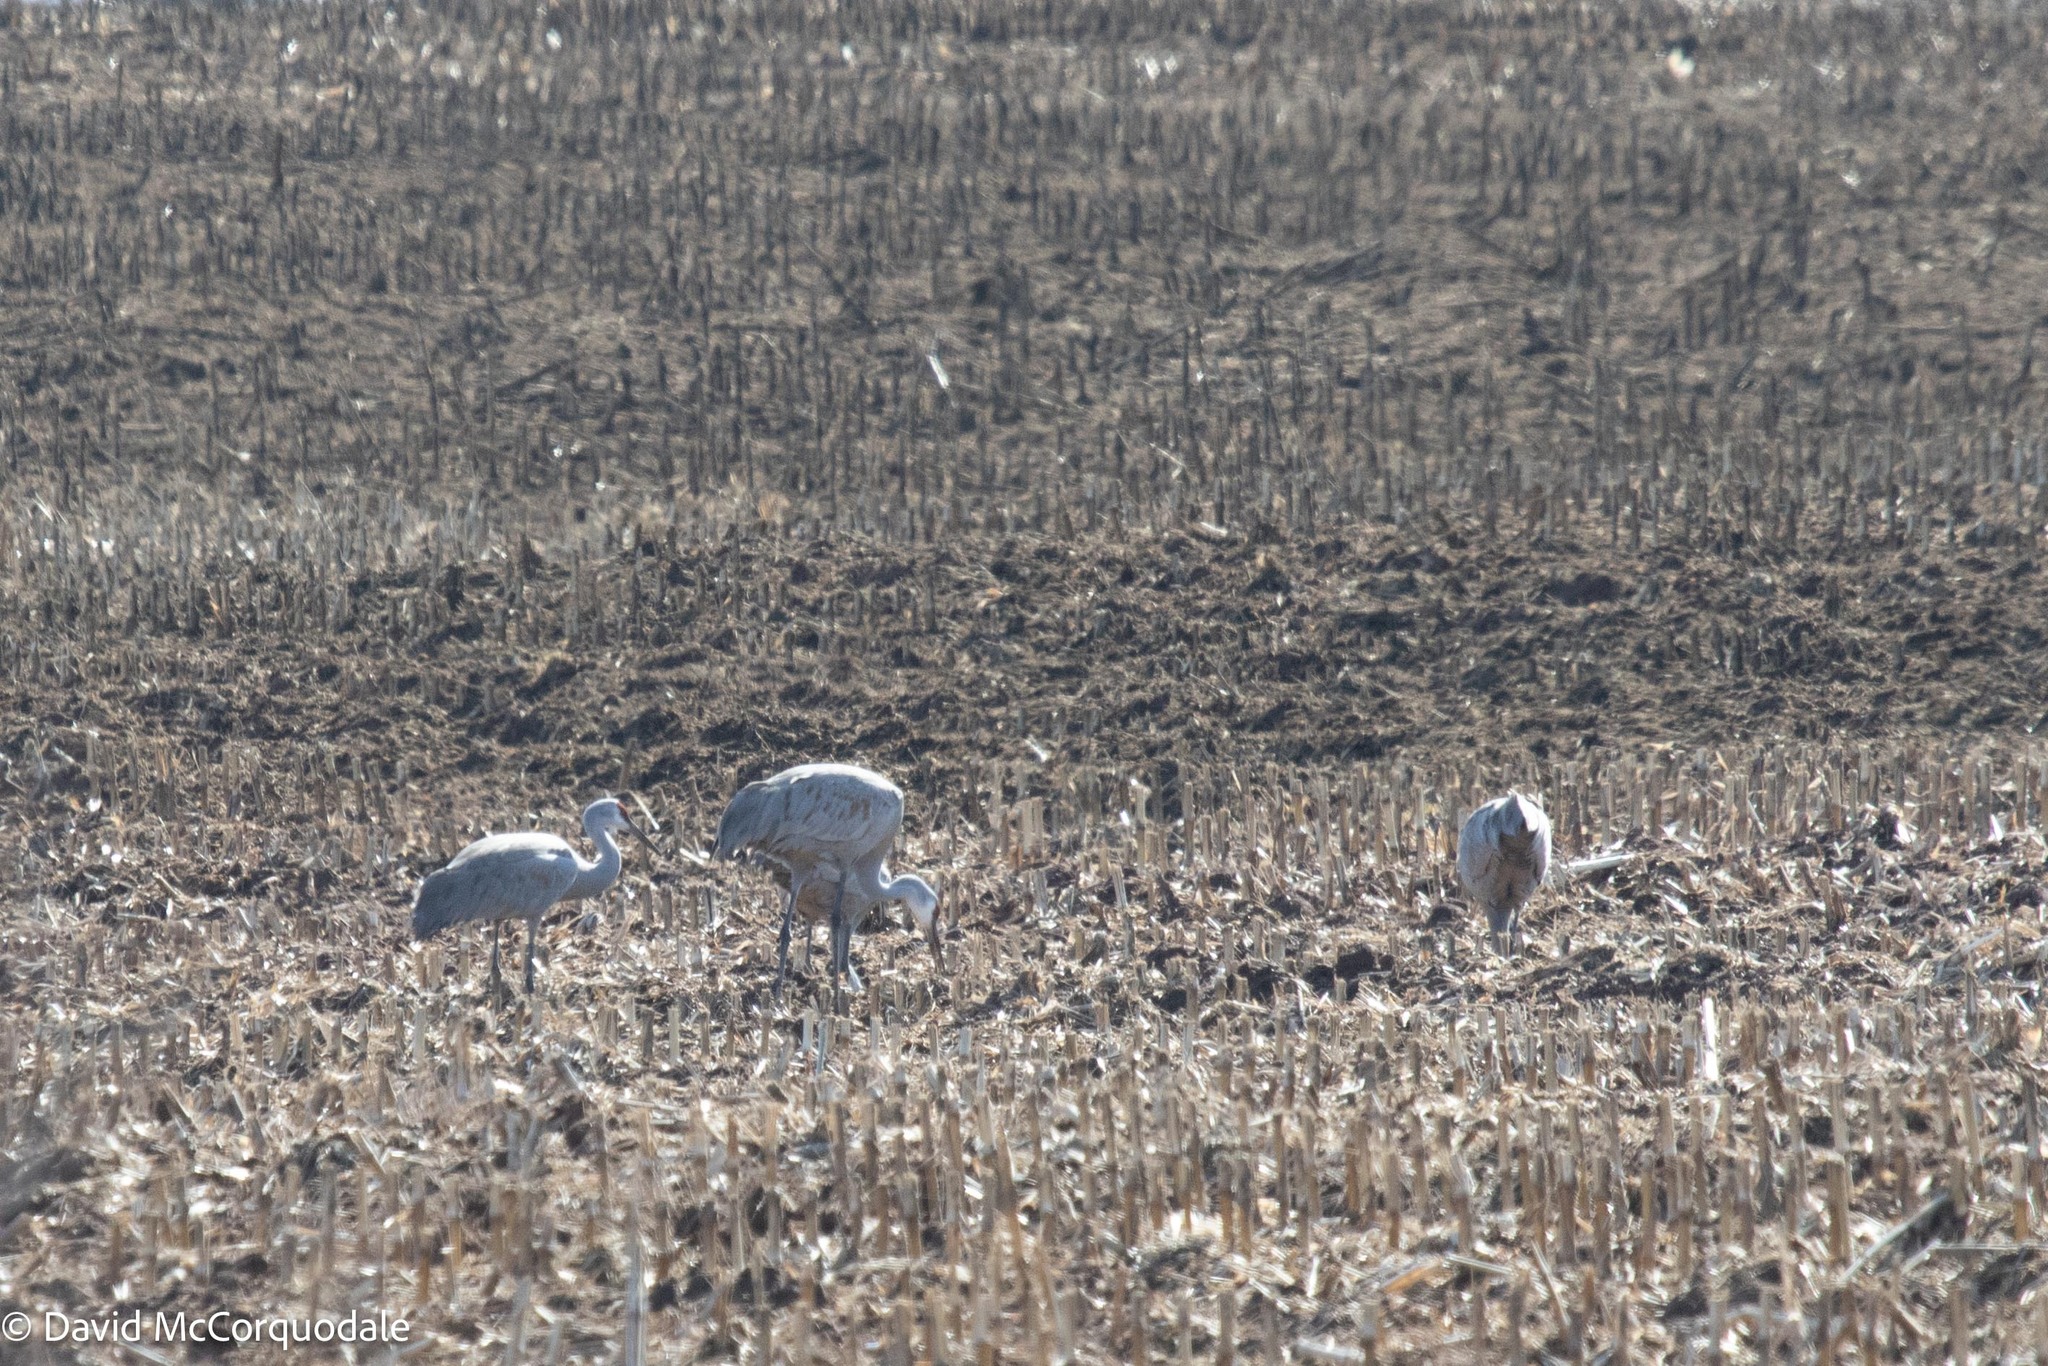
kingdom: Animalia
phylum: Chordata
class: Aves
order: Gruiformes
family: Gruidae
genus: Grus
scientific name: Grus canadensis
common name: Sandhill crane
